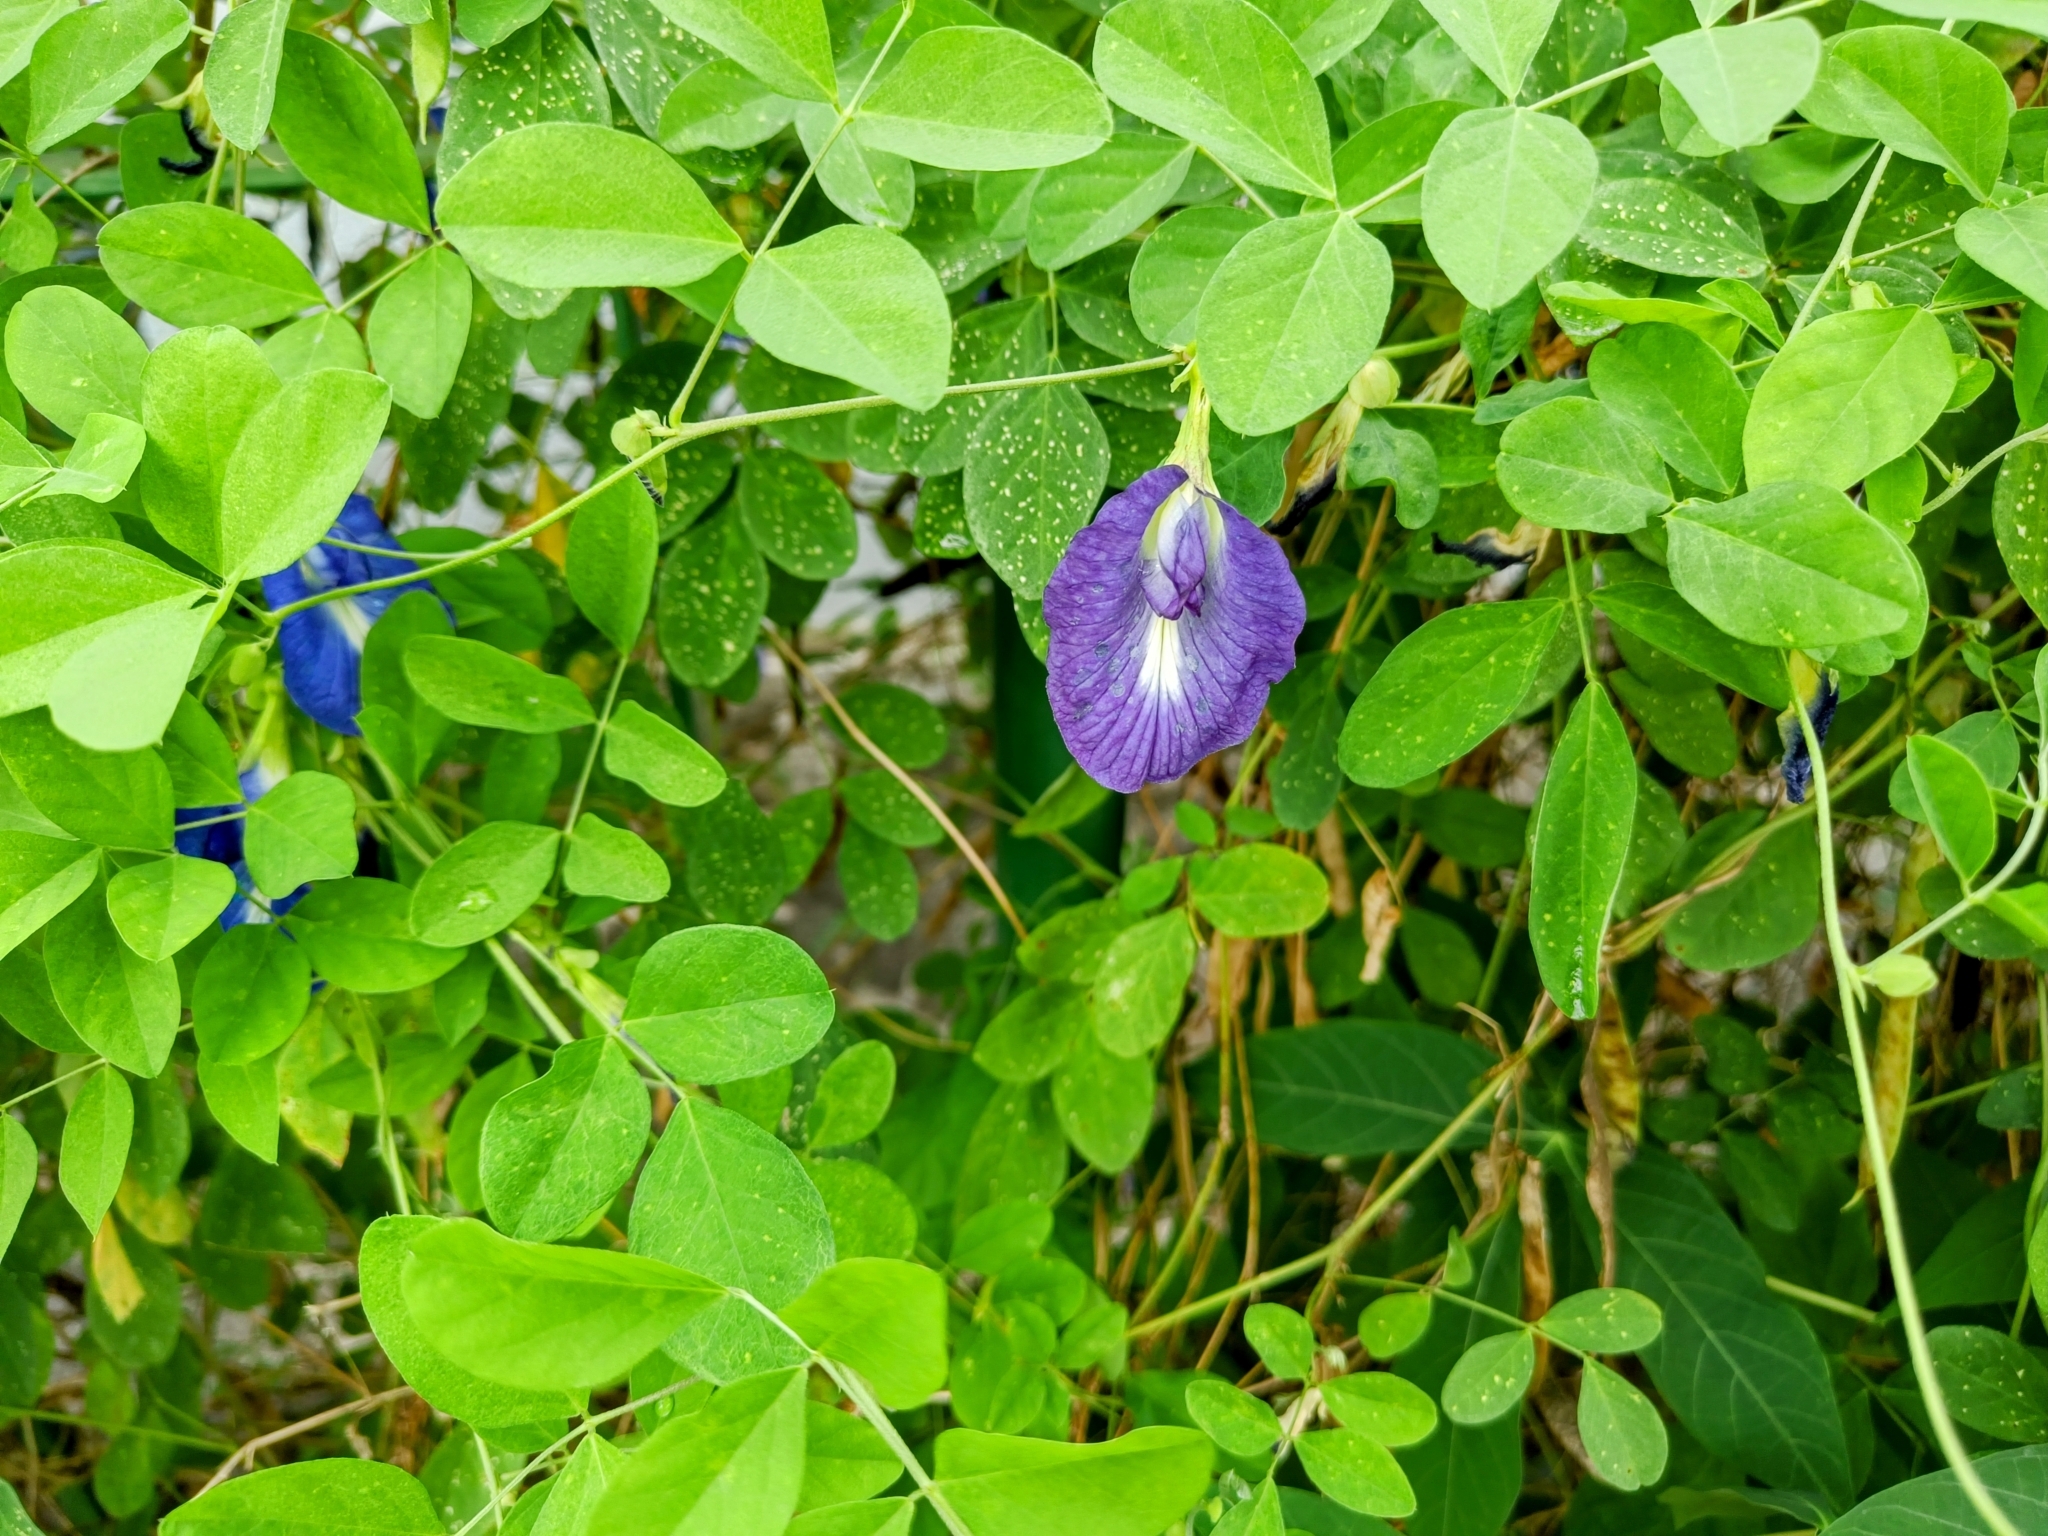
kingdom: Plantae
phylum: Tracheophyta
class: Magnoliopsida
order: Fabales
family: Fabaceae
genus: Clitoria
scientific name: Clitoria ternatea
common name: Asian pigeonwings
